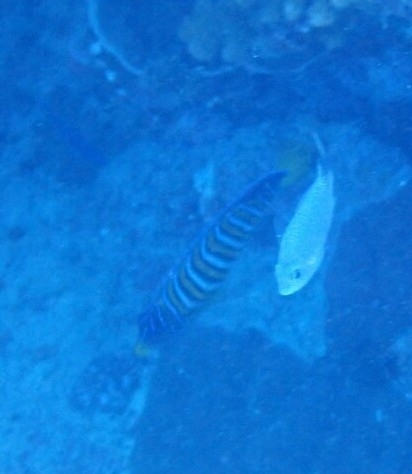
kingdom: Animalia
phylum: Chordata
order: Perciformes
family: Pomacanthidae
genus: Pygoplites
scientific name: Pygoplites diacanthus
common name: Regal angelfish
